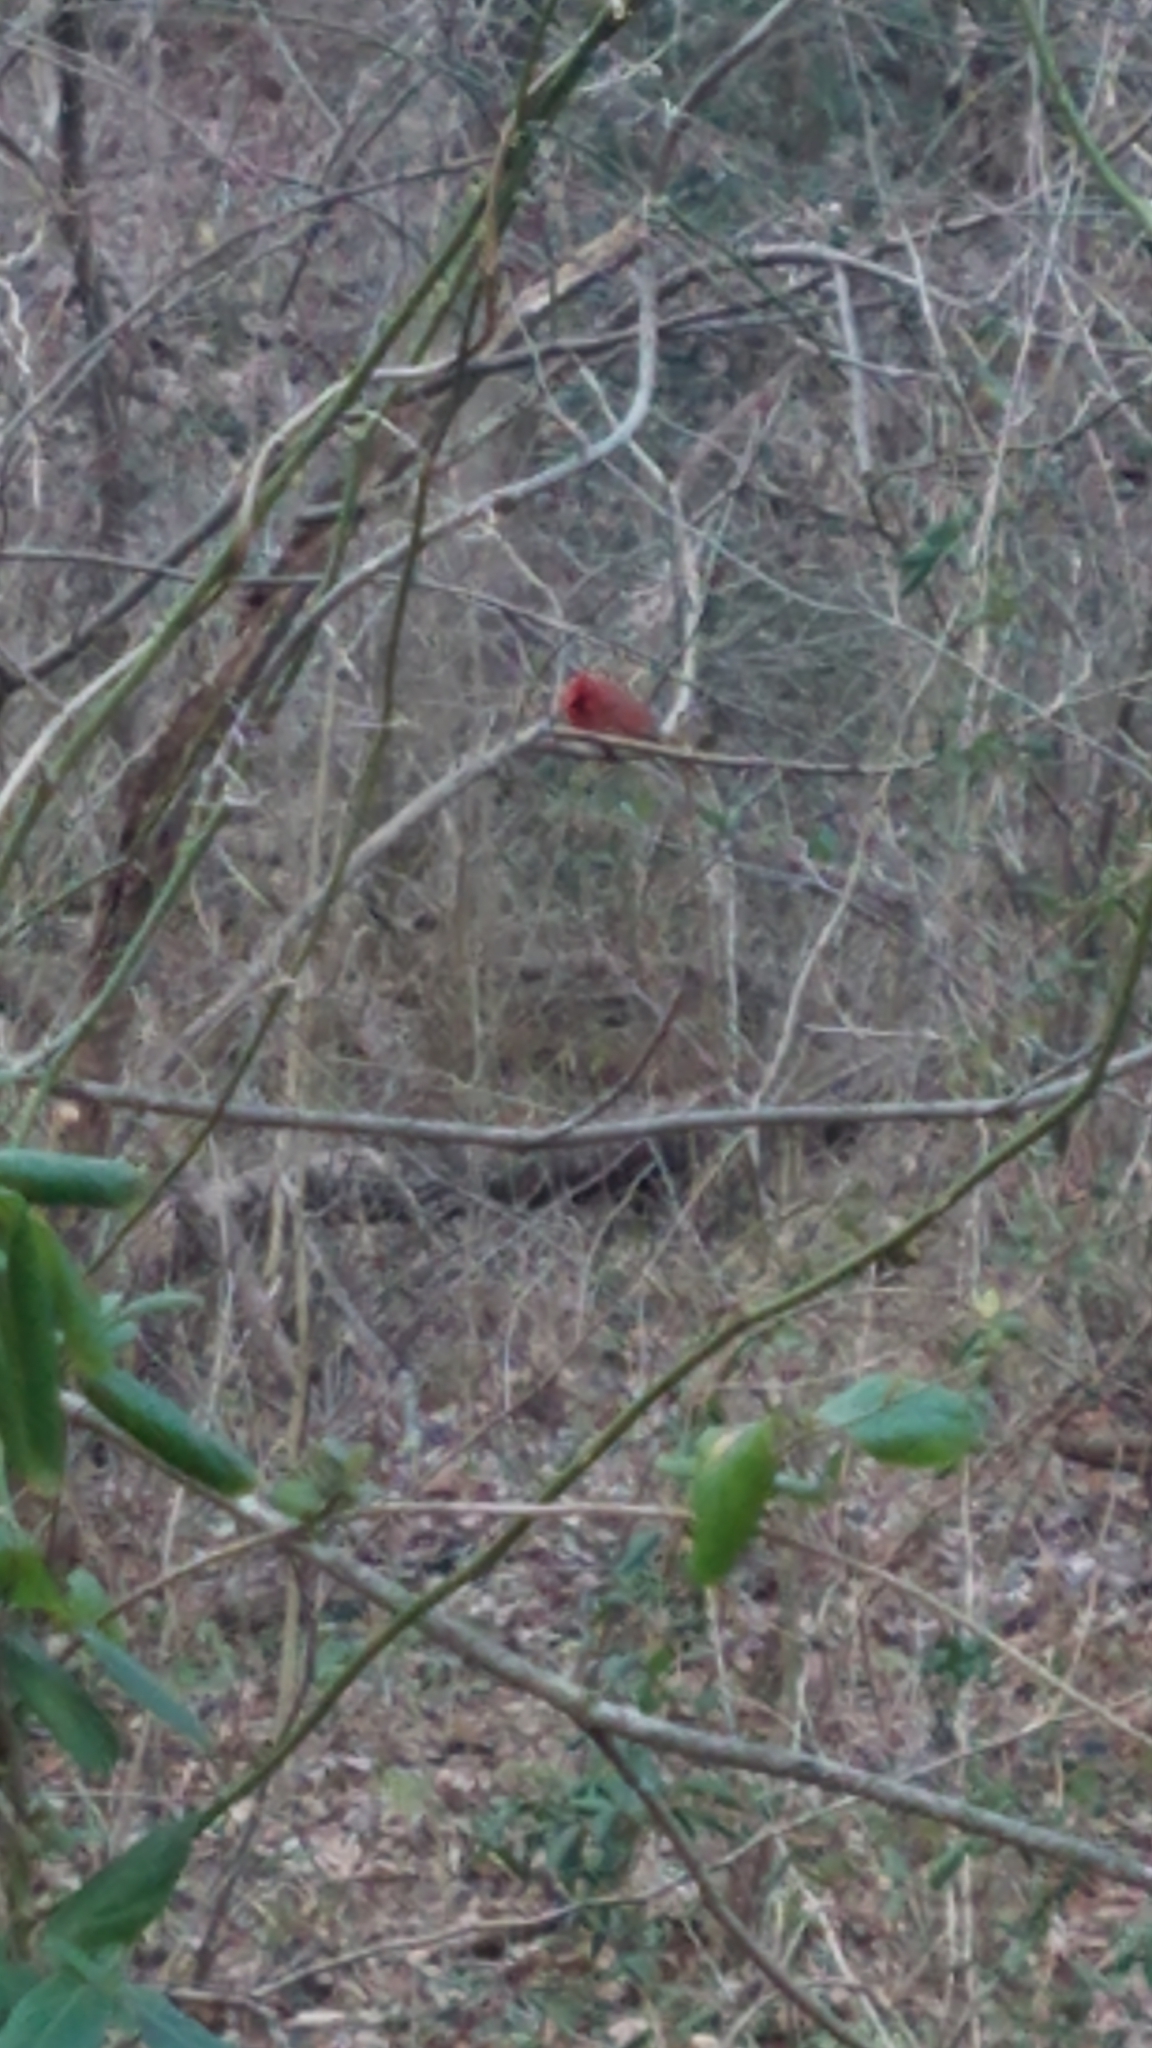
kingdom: Animalia
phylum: Chordata
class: Aves
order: Passeriformes
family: Cardinalidae
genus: Cardinalis
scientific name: Cardinalis cardinalis
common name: Northern cardinal
